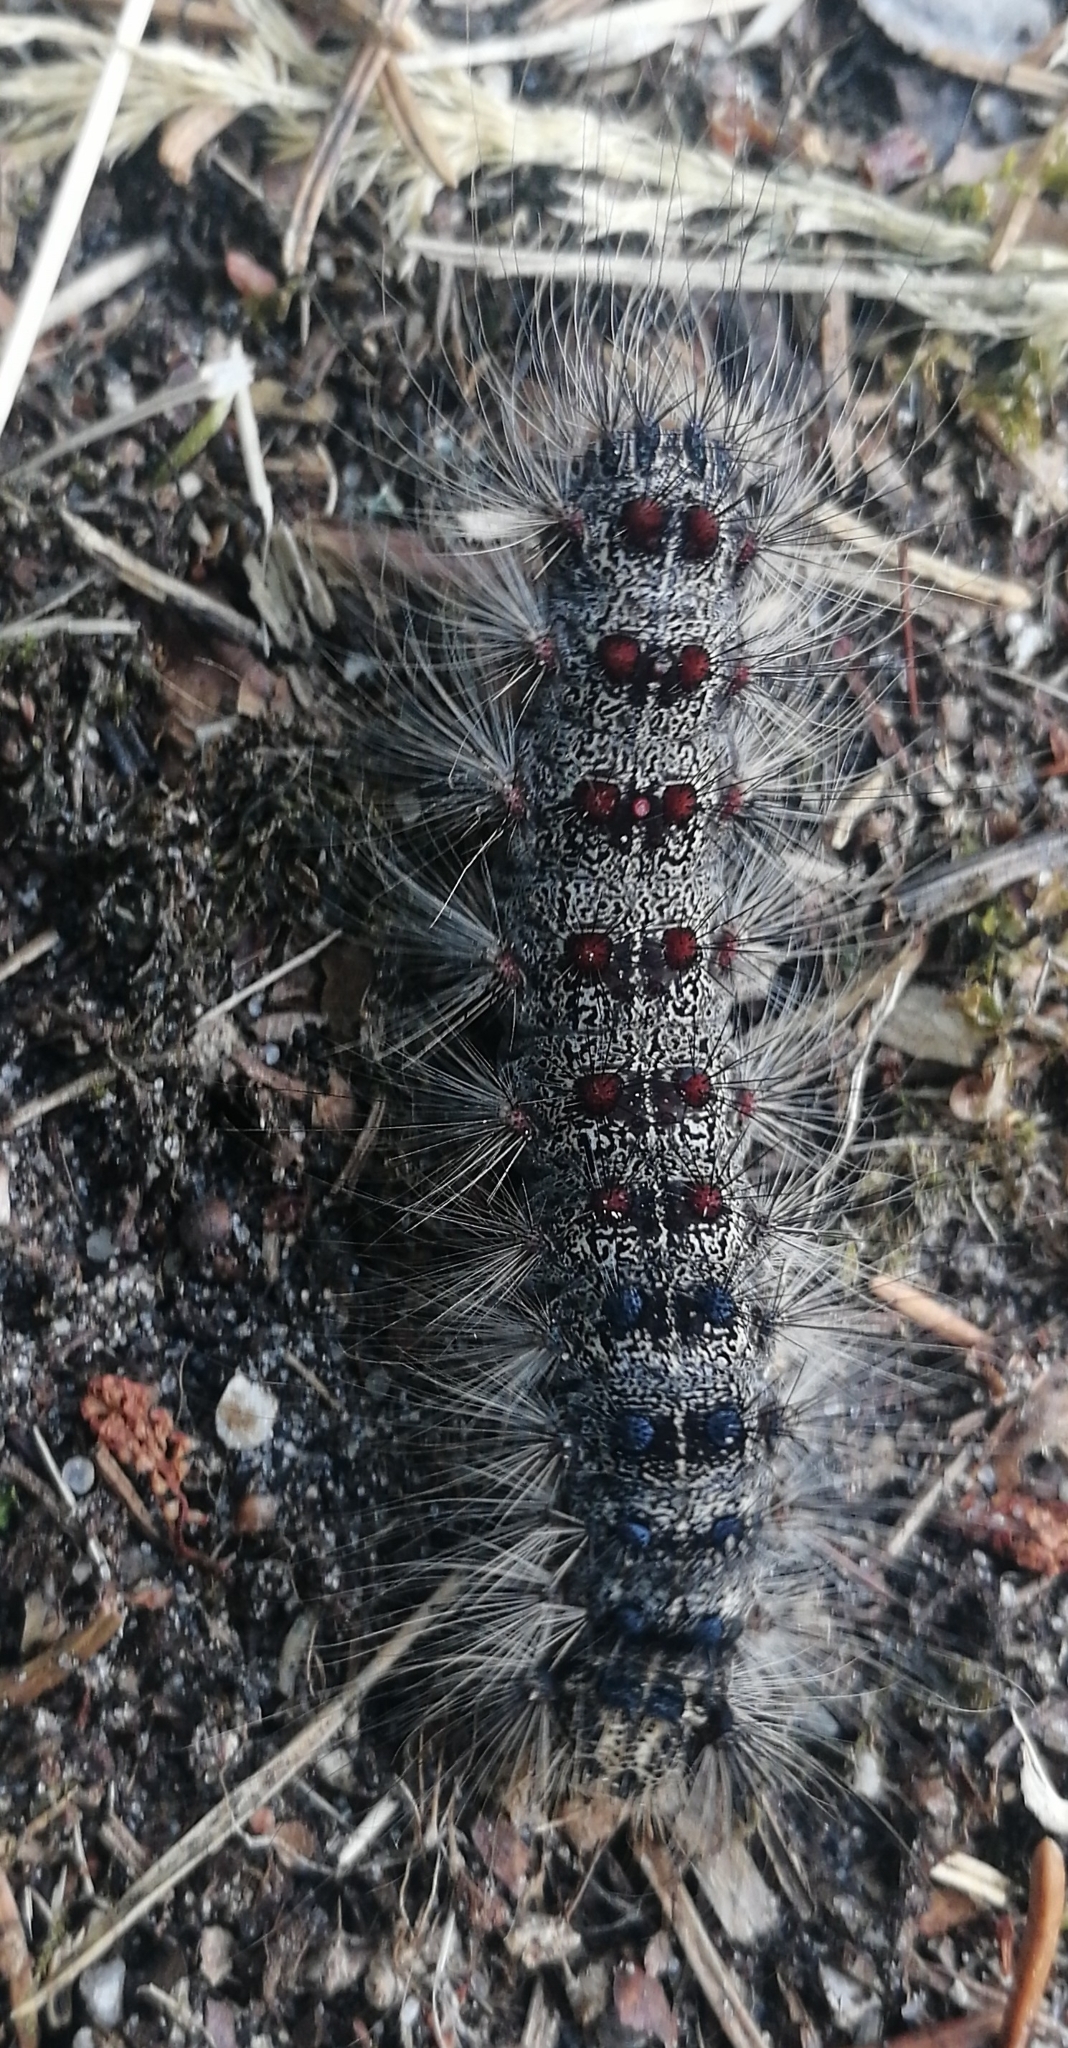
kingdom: Animalia
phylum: Arthropoda
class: Insecta
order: Lepidoptera
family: Erebidae
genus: Lymantria
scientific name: Lymantria dispar
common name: Gypsy moth
